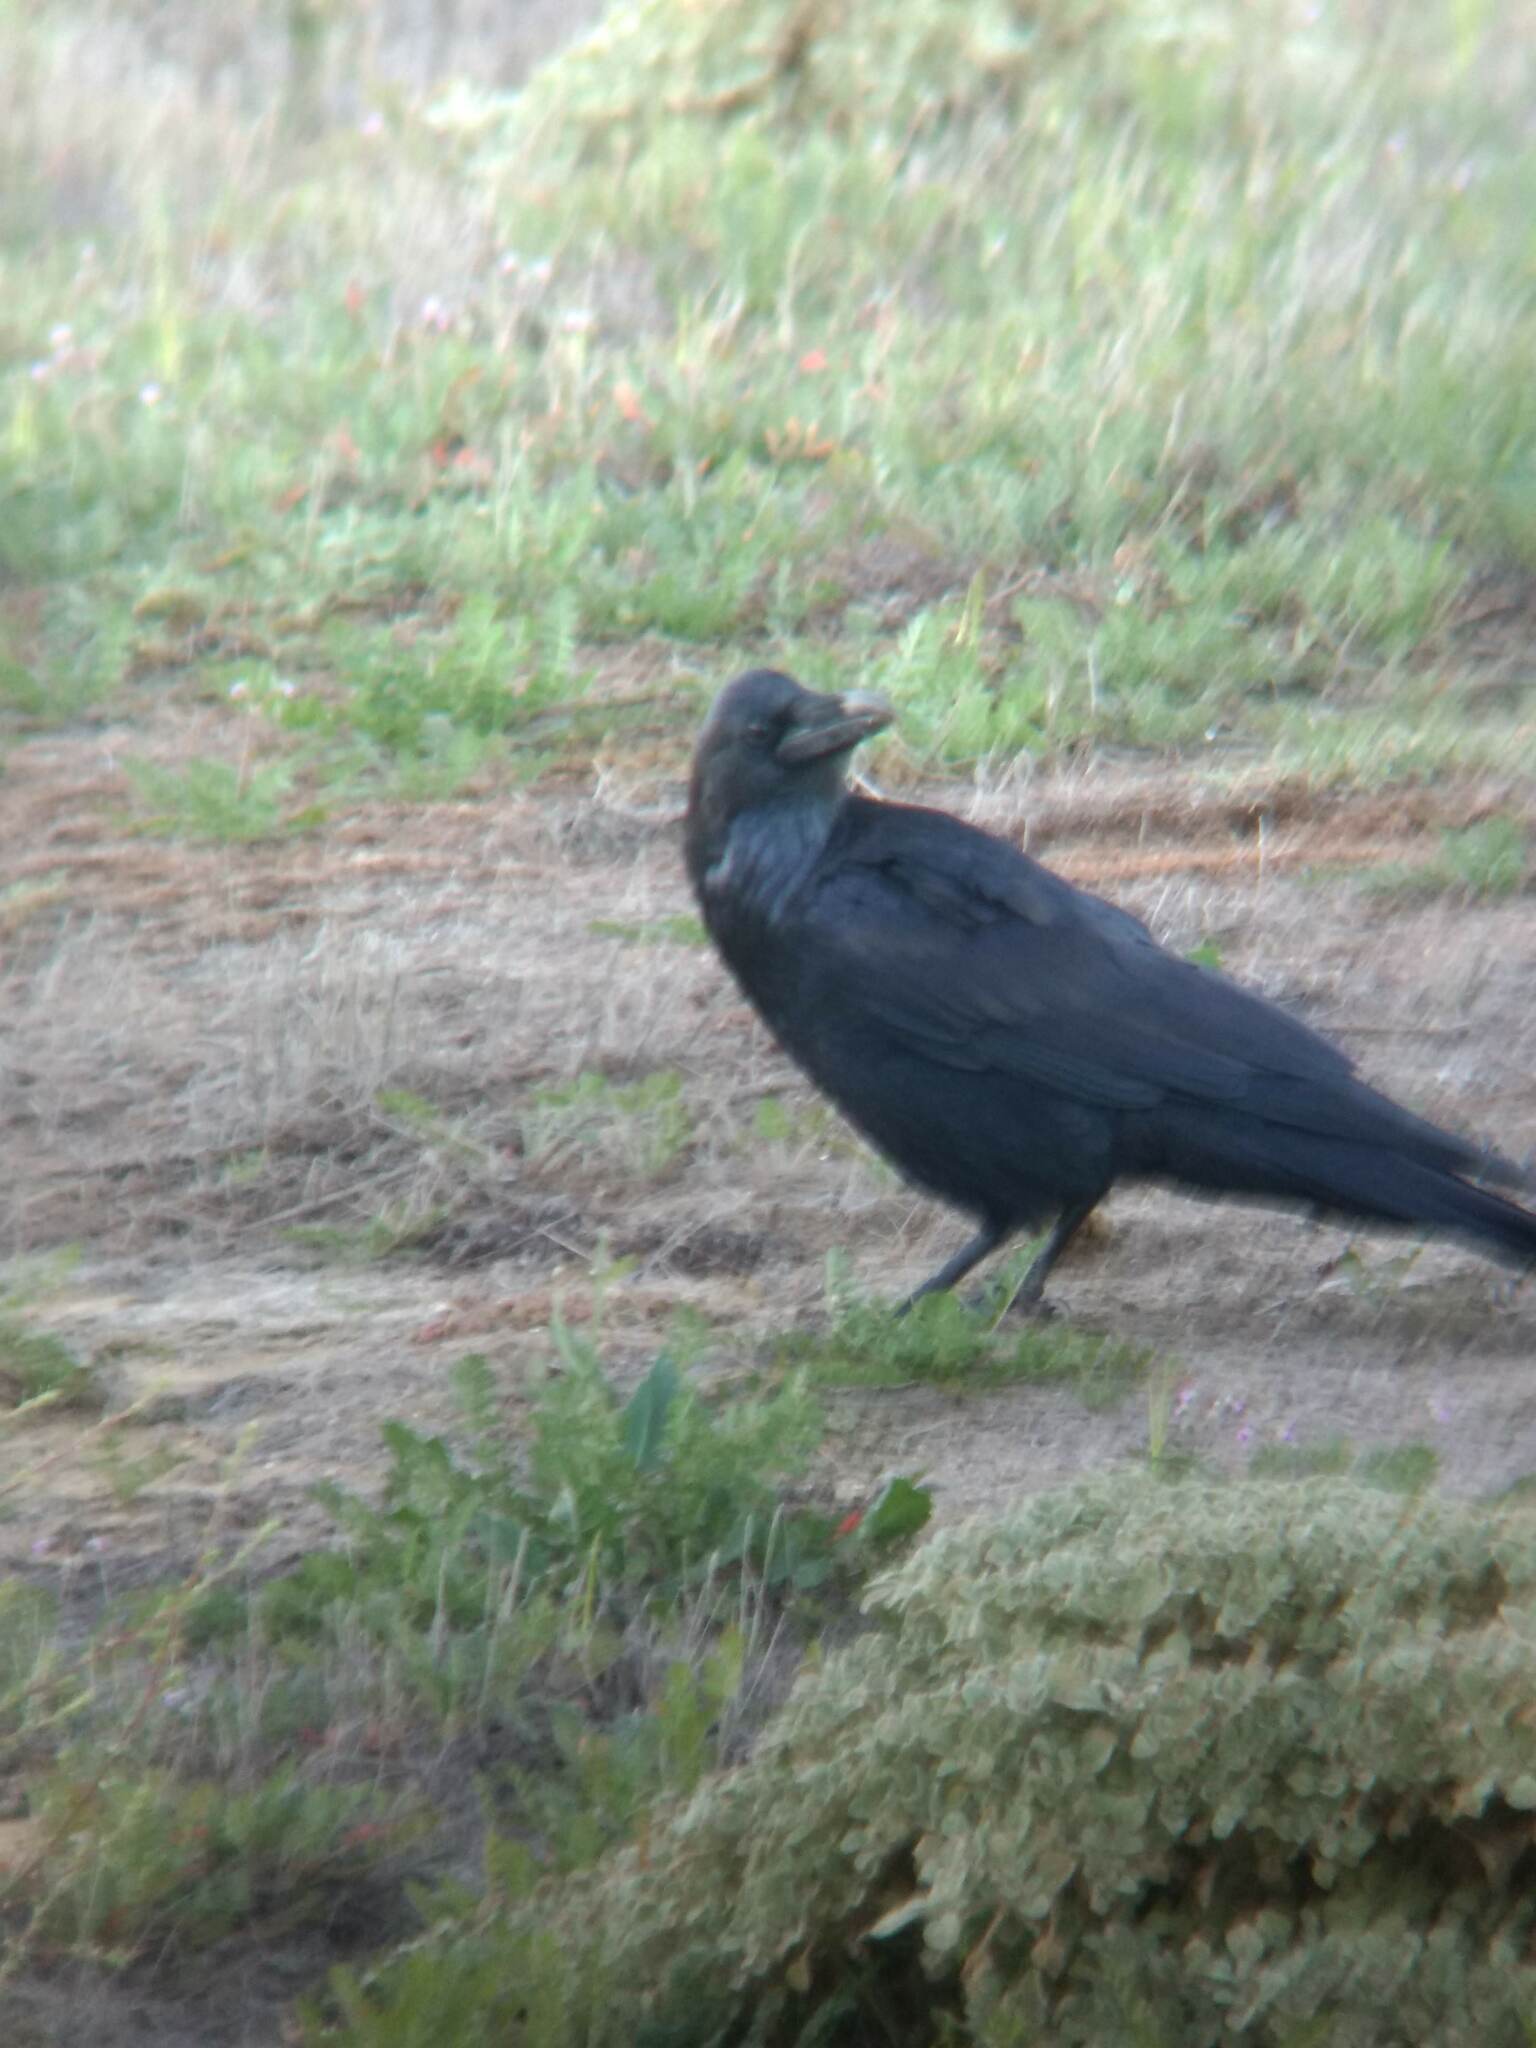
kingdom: Animalia
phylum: Chordata
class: Aves
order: Passeriformes
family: Corvidae
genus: Corvus
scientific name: Corvus corax
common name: Common raven
